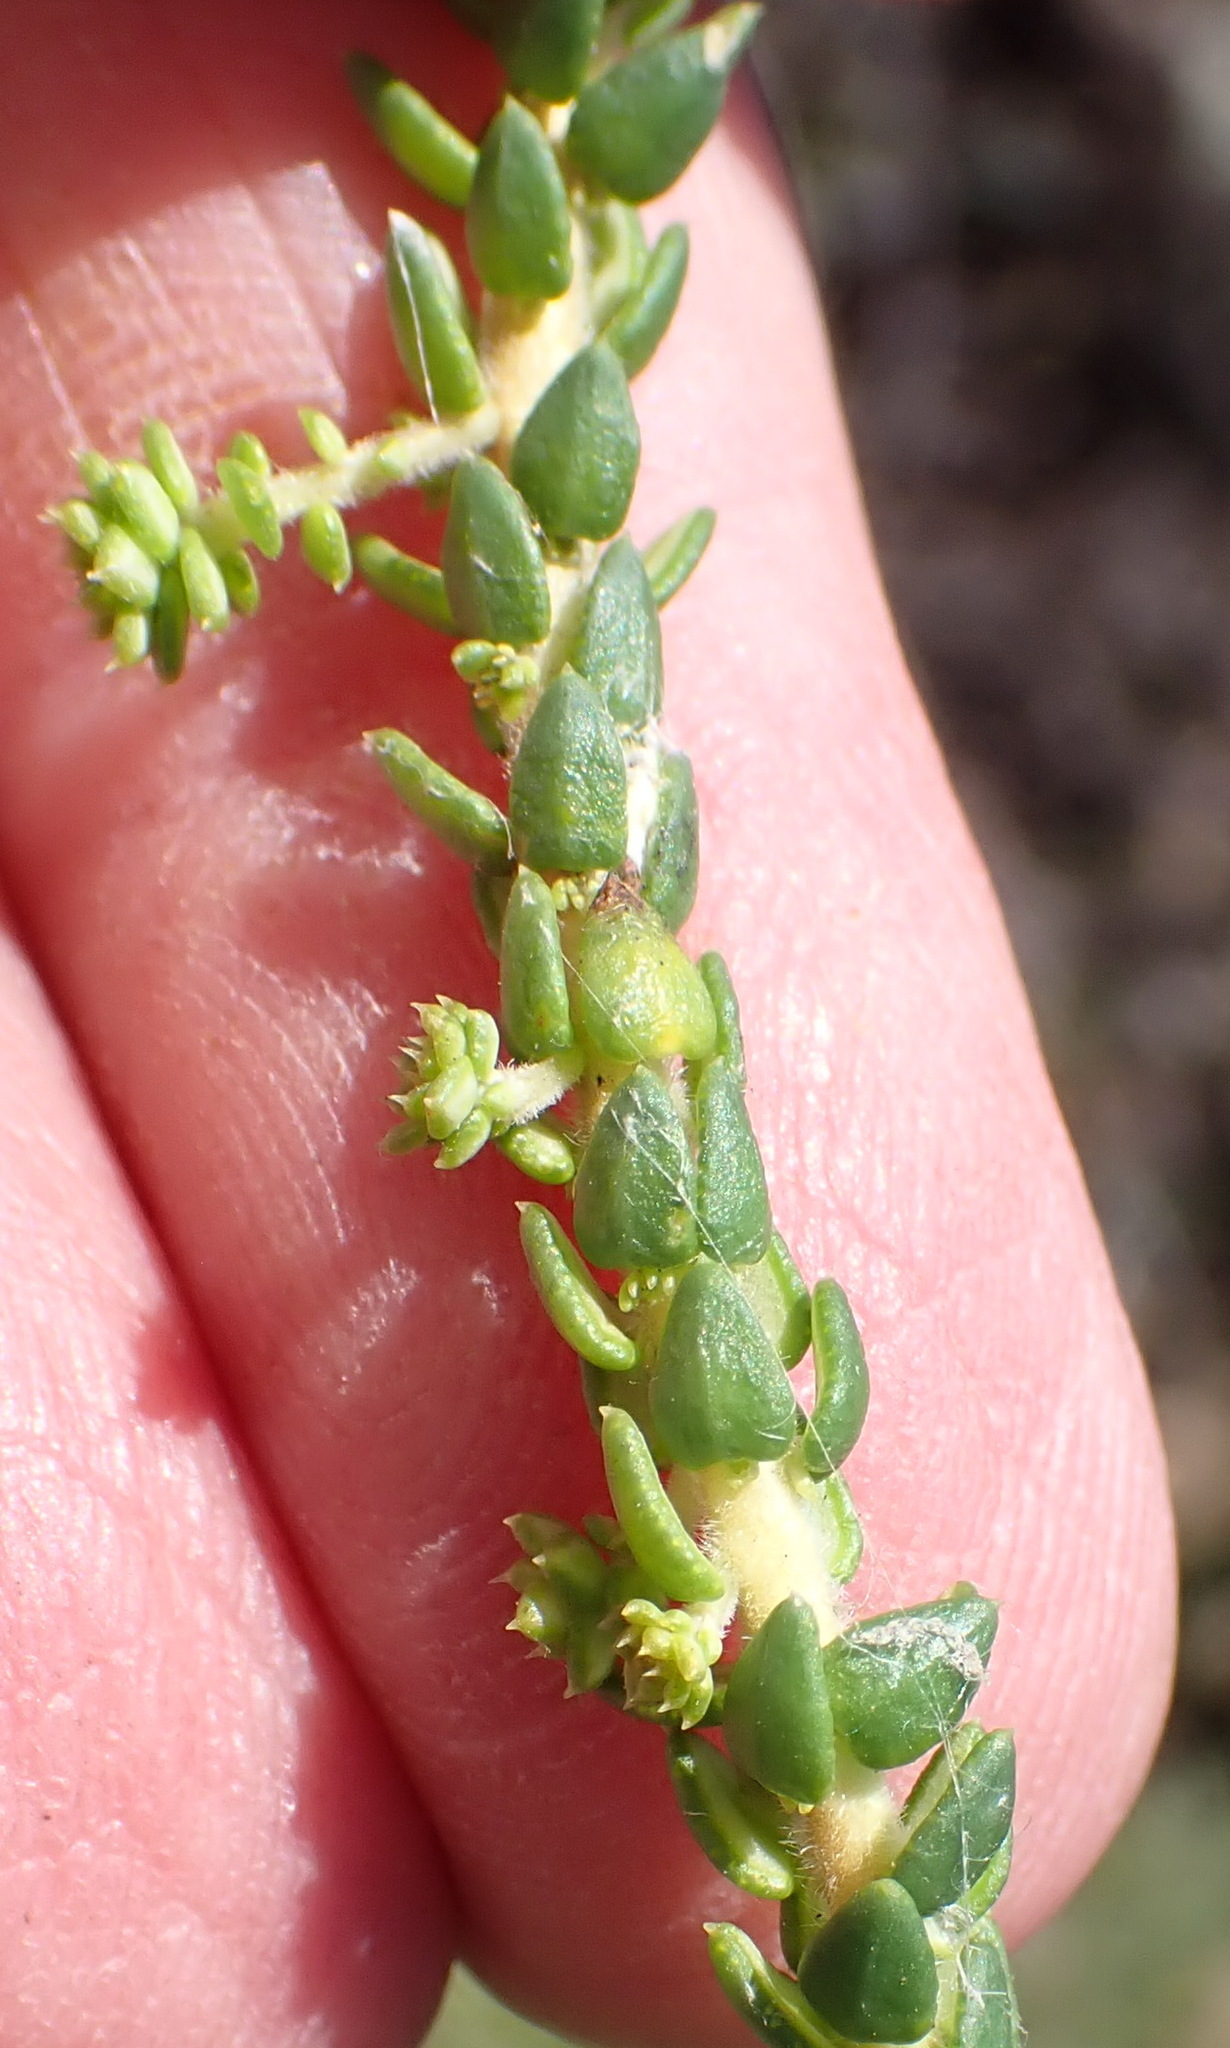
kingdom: Plantae
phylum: Tracheophyta
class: Magnoliopsida
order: Sapindales
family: Rutaceae
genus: Agathosma
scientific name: Agathosma apiculata
